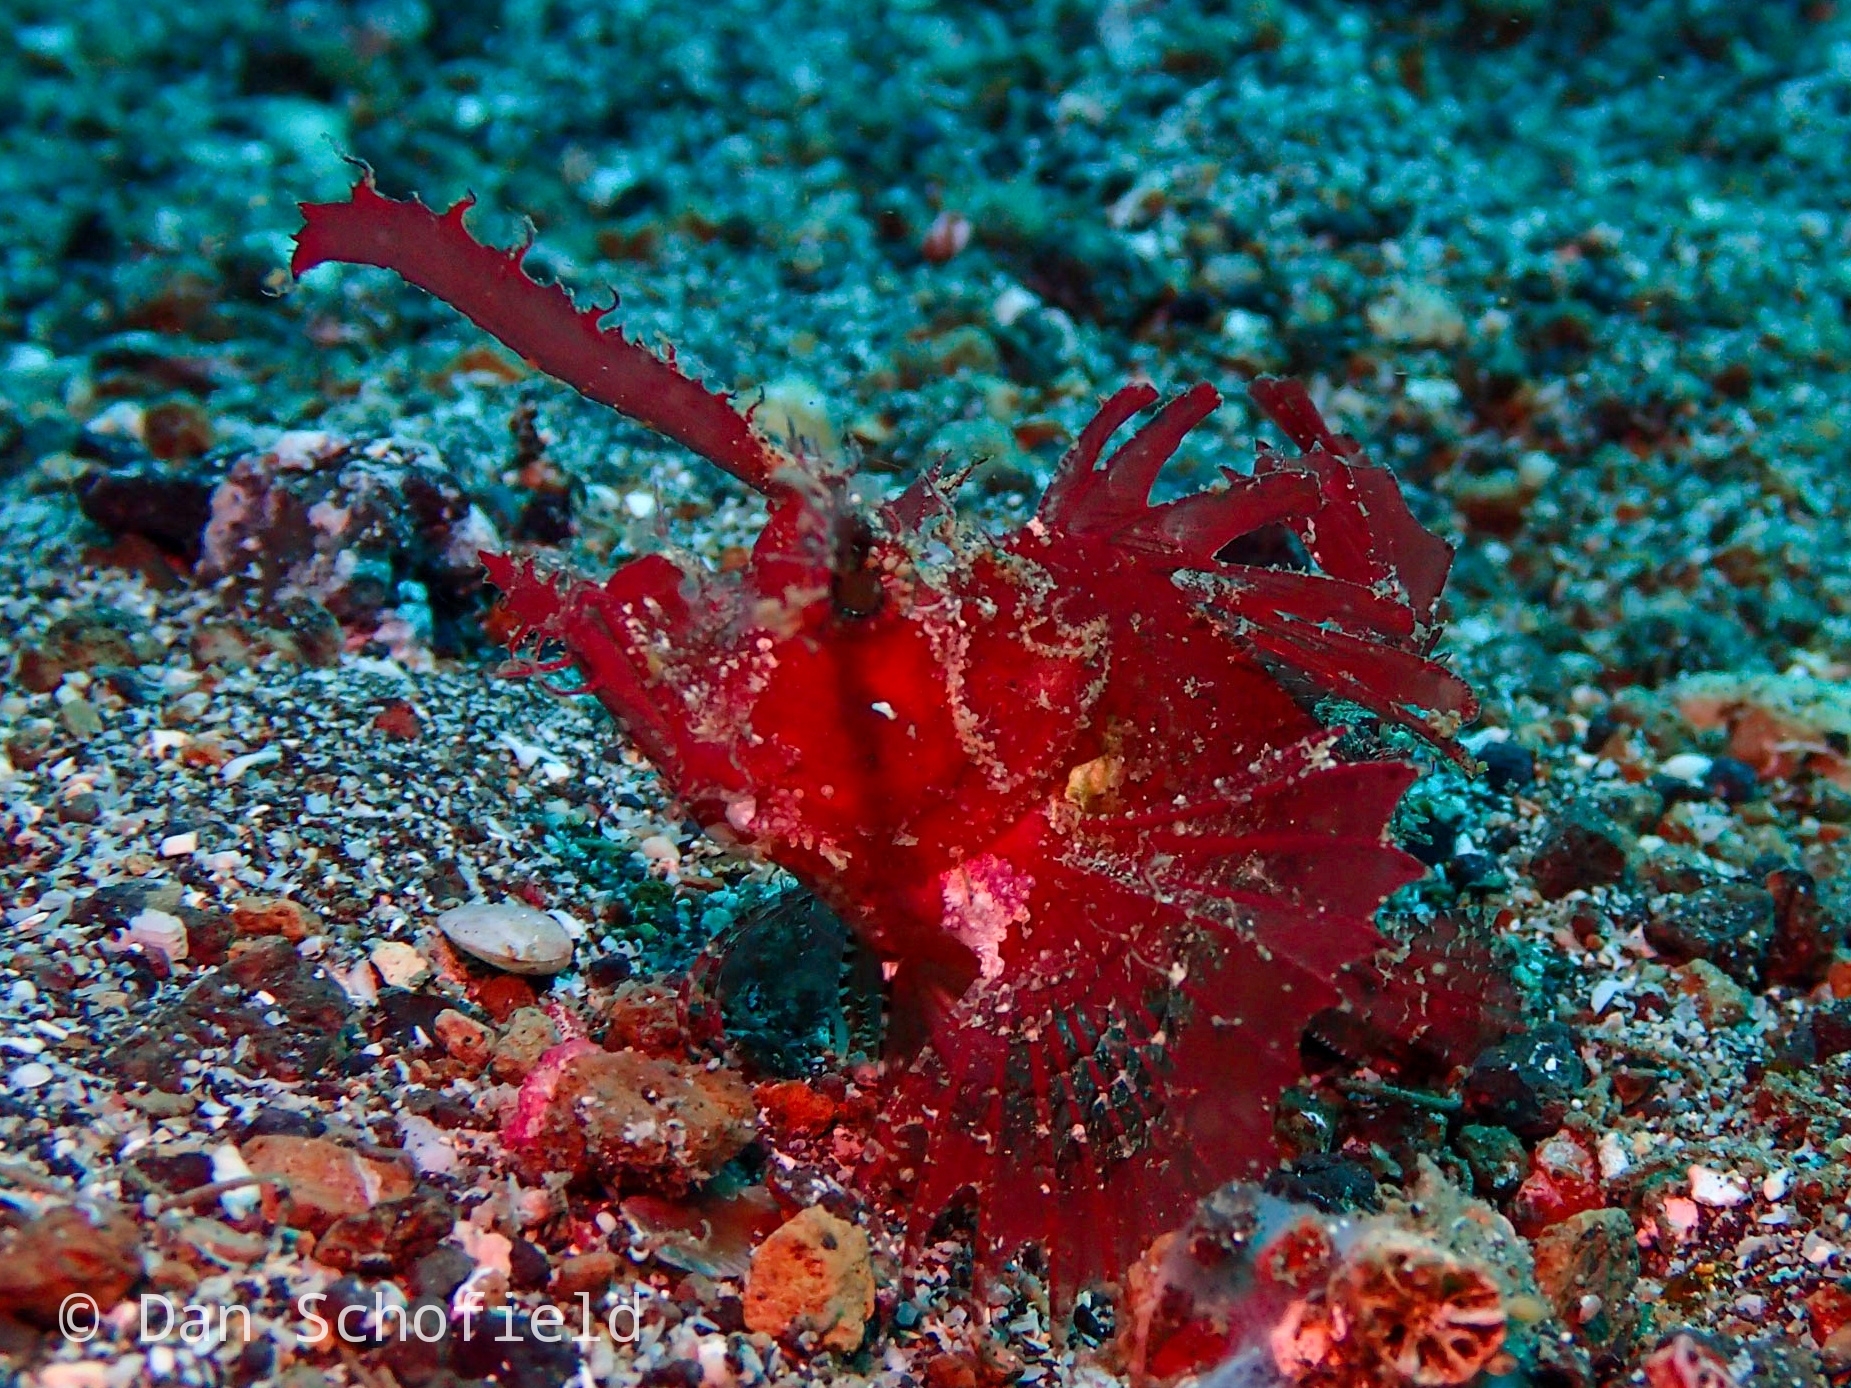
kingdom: Animalia
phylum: Chordata
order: Scorpaeniformes
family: Scorpaenidae
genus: Pteroidichthys
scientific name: Pteroidichthys amboinensis
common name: Ambon scorpionfish
